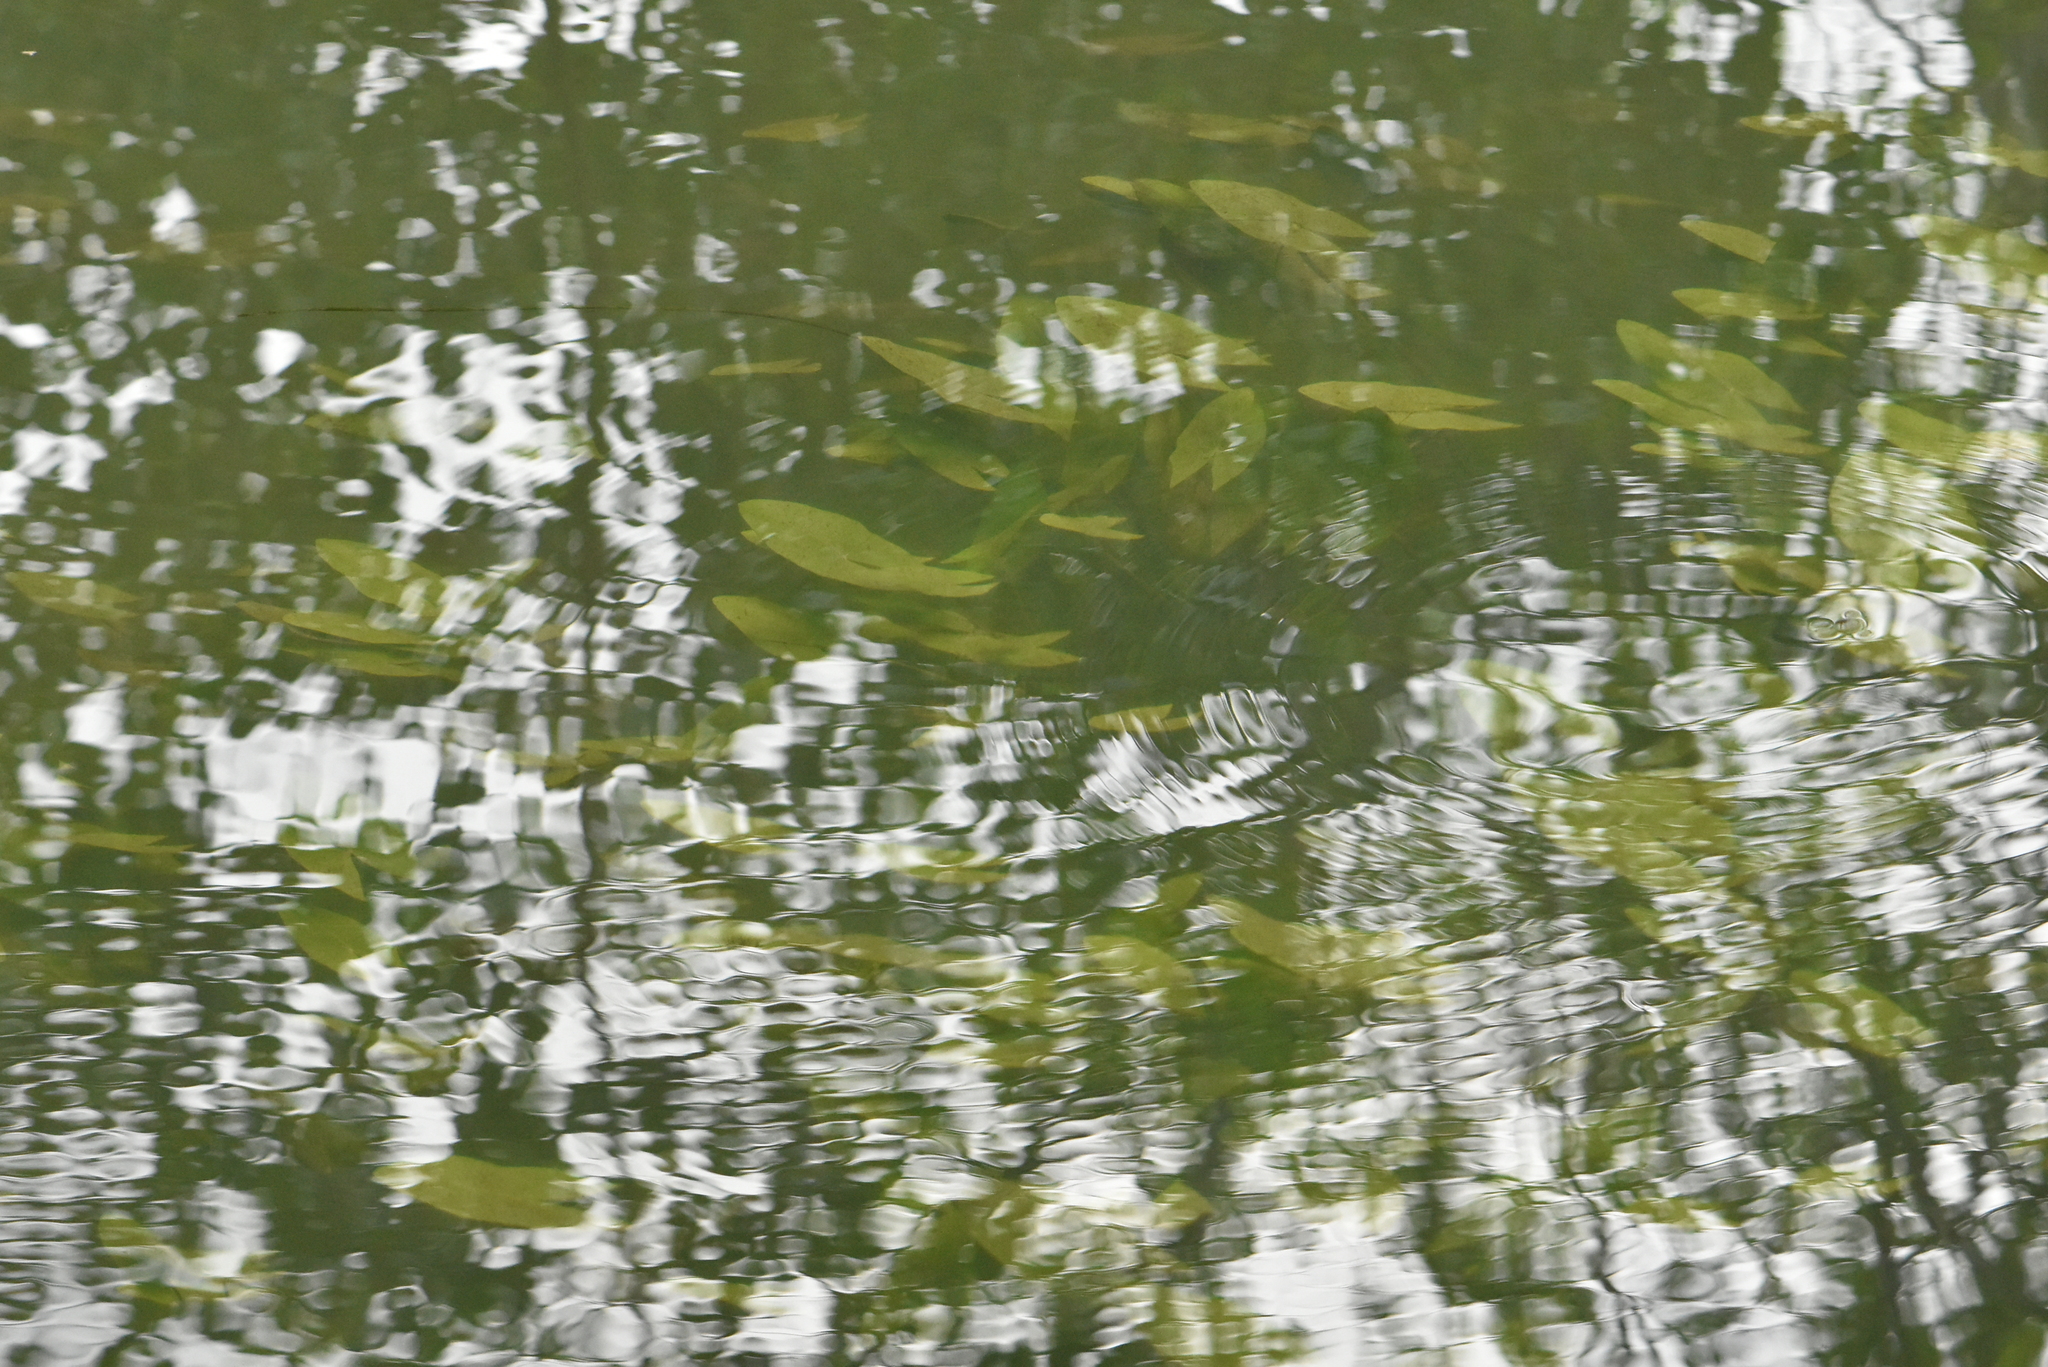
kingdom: Plantae
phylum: Tracheophyta
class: Liliopsida
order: Alismatales
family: Alismataceae
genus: Sagittaria
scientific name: Sagittaria sagittifolia
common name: Arrowhead
